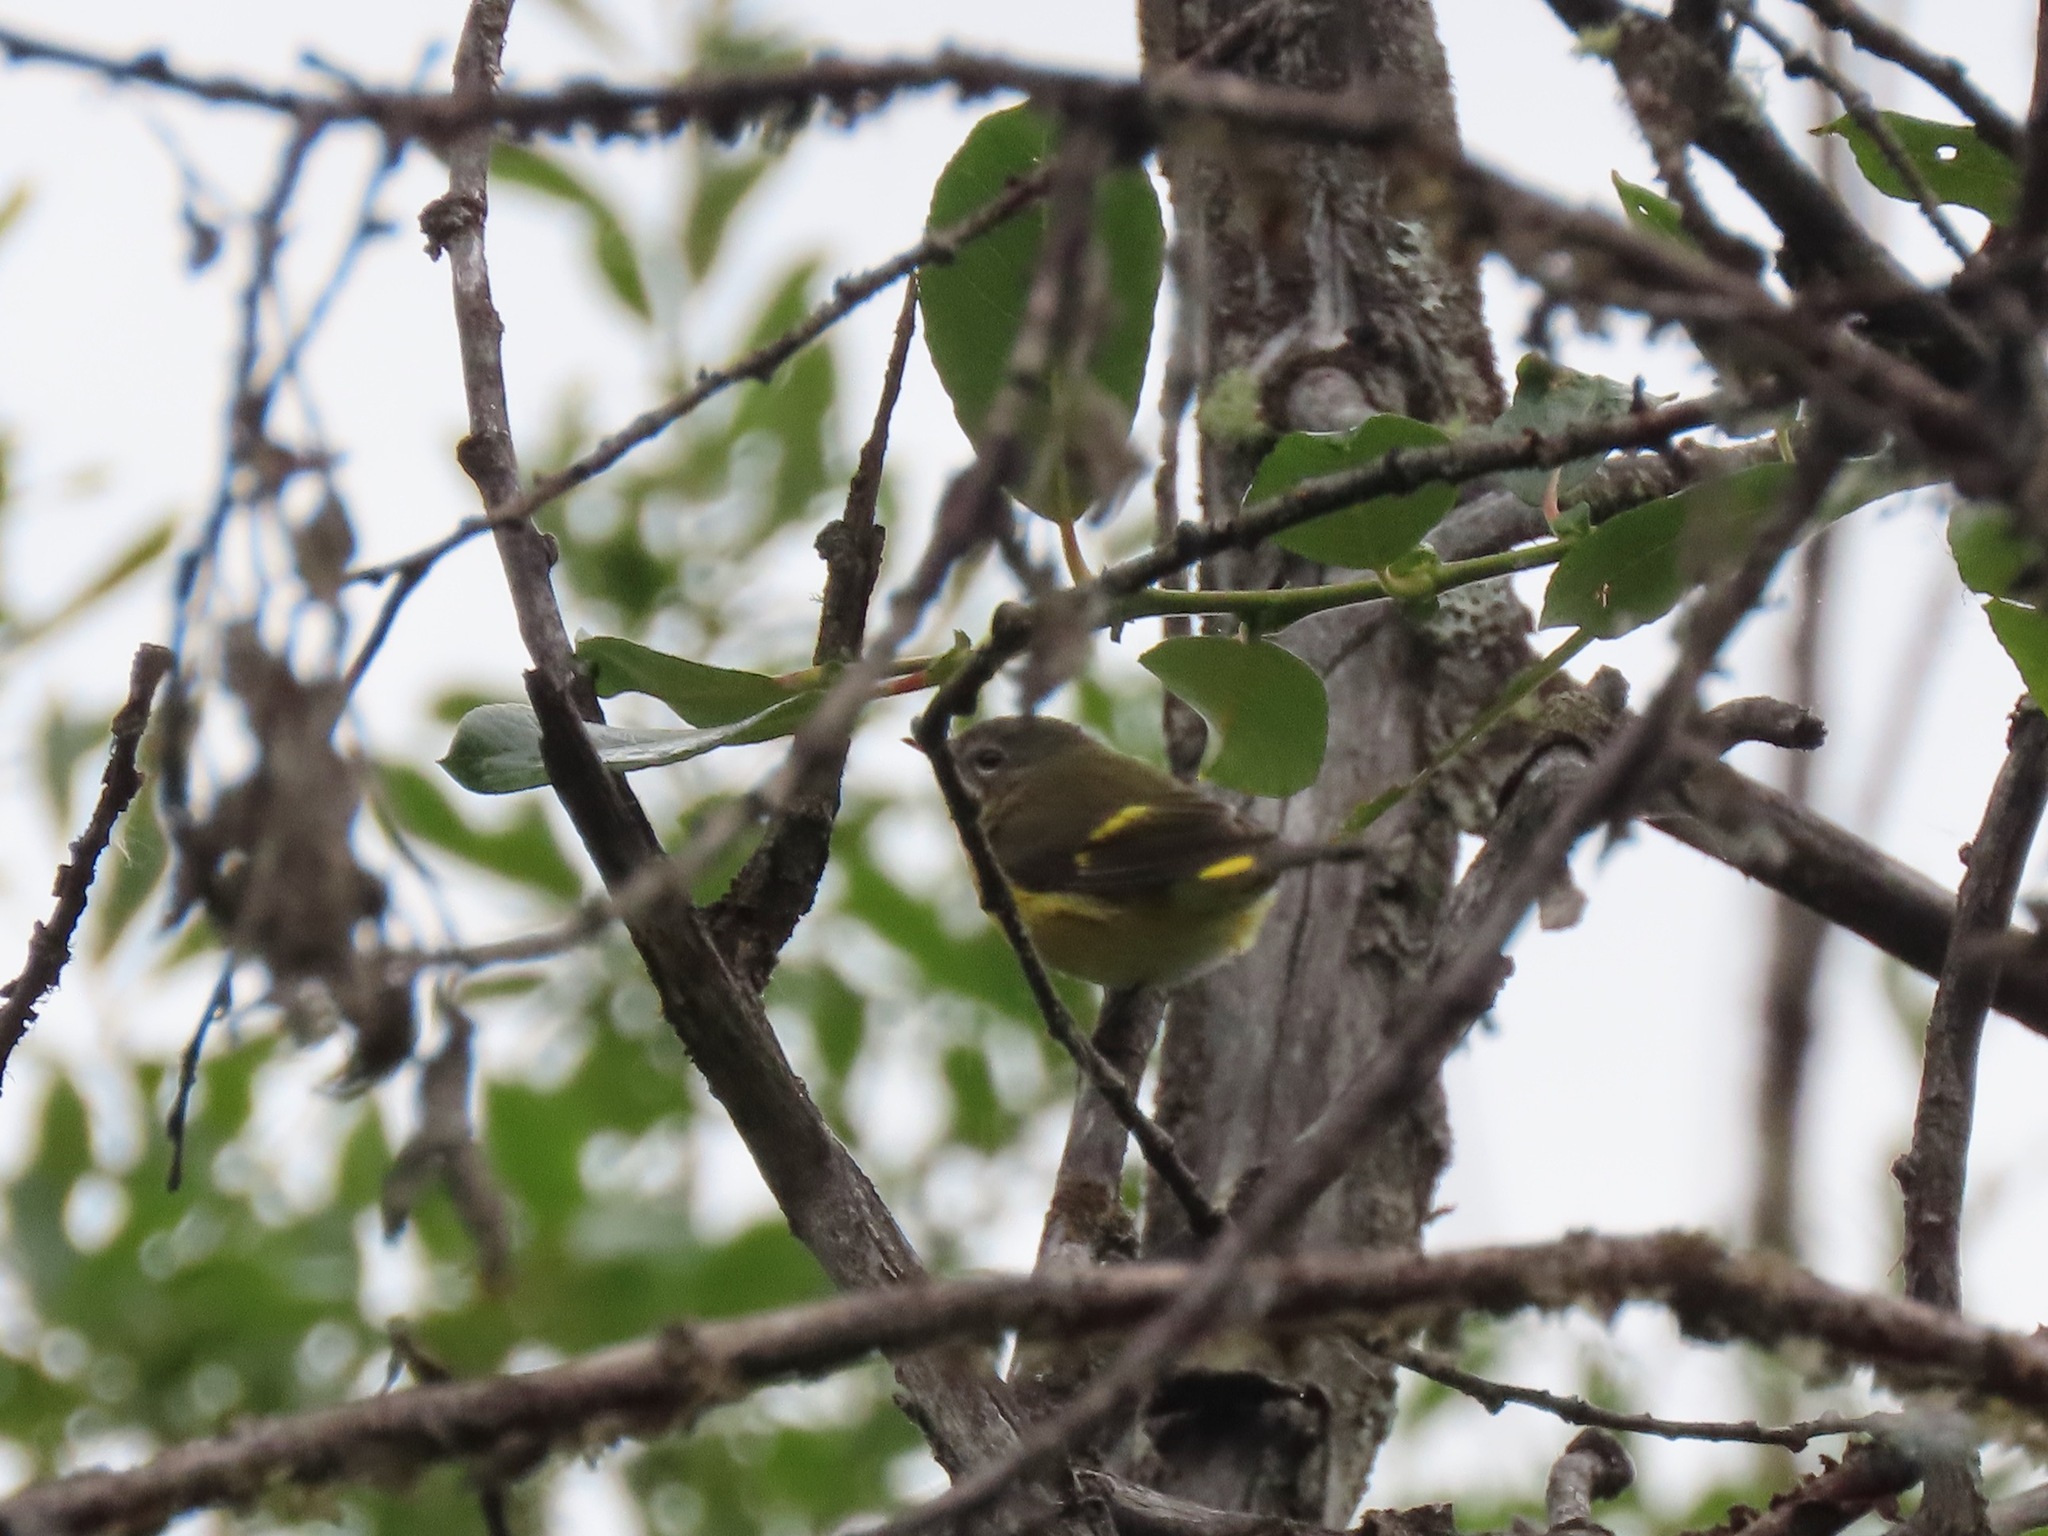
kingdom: Animalia
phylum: Chordata
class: Aves
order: Passeriformes
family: Parulidae
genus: Setophaga
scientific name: Setophaga ruticilla
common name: American redstart
